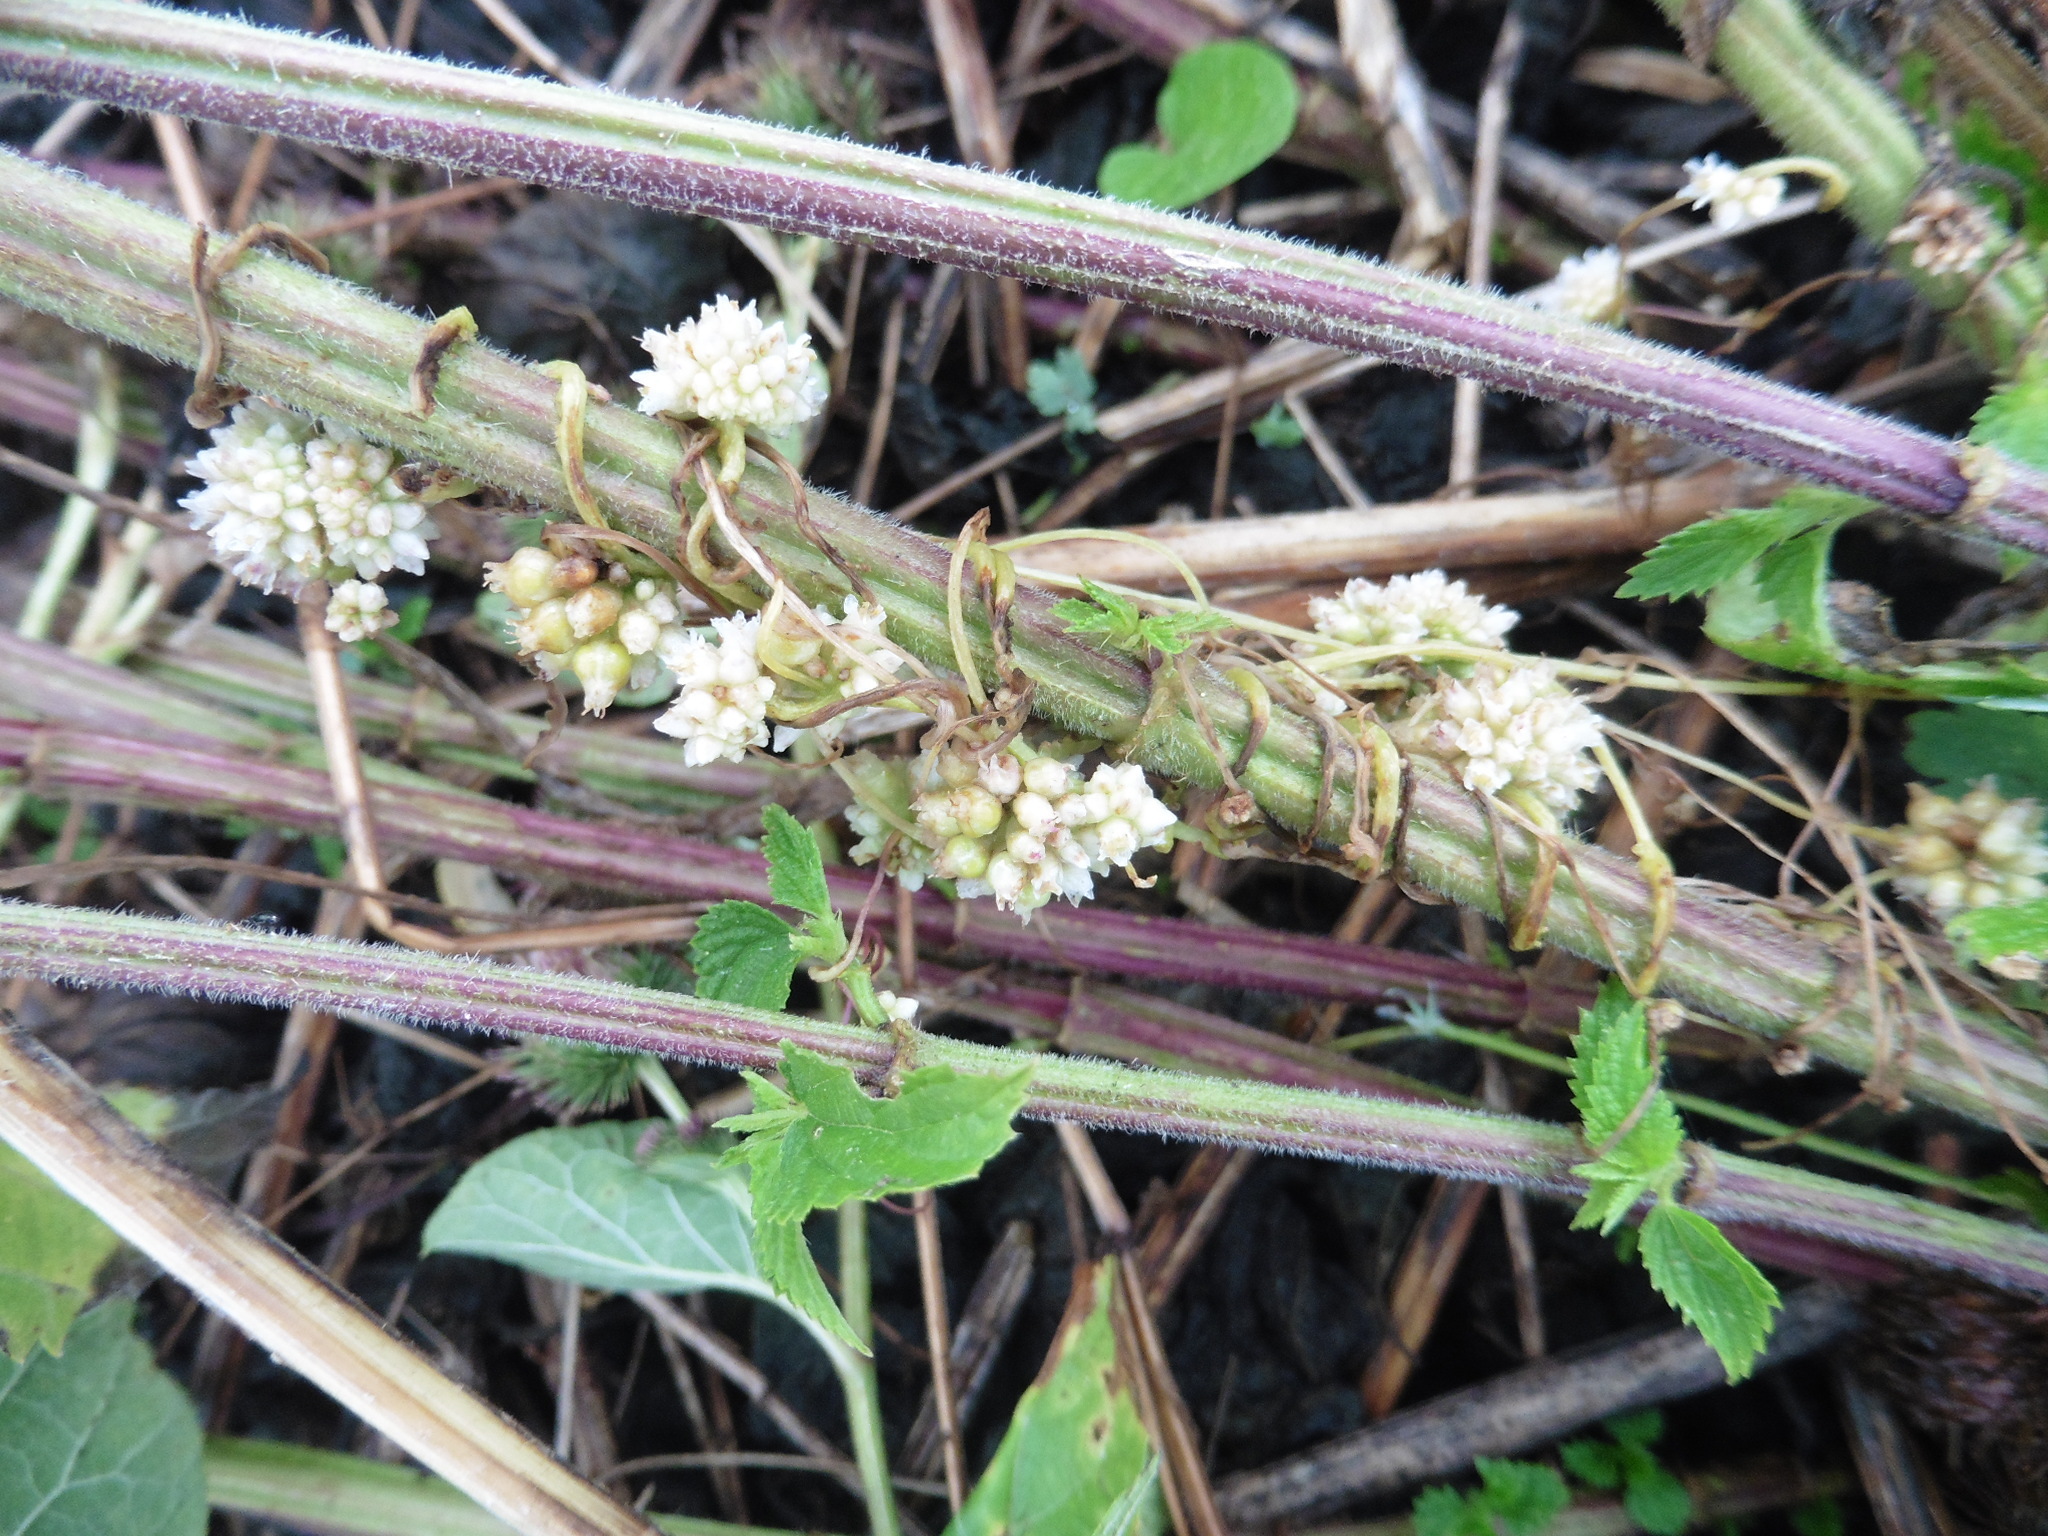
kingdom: Plantae
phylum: Tracheophyta
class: Magnoliopsida
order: Solanales
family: Convolvulaceae
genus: Cuscuta
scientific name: Cuscuta europaea
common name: Greater dodder
